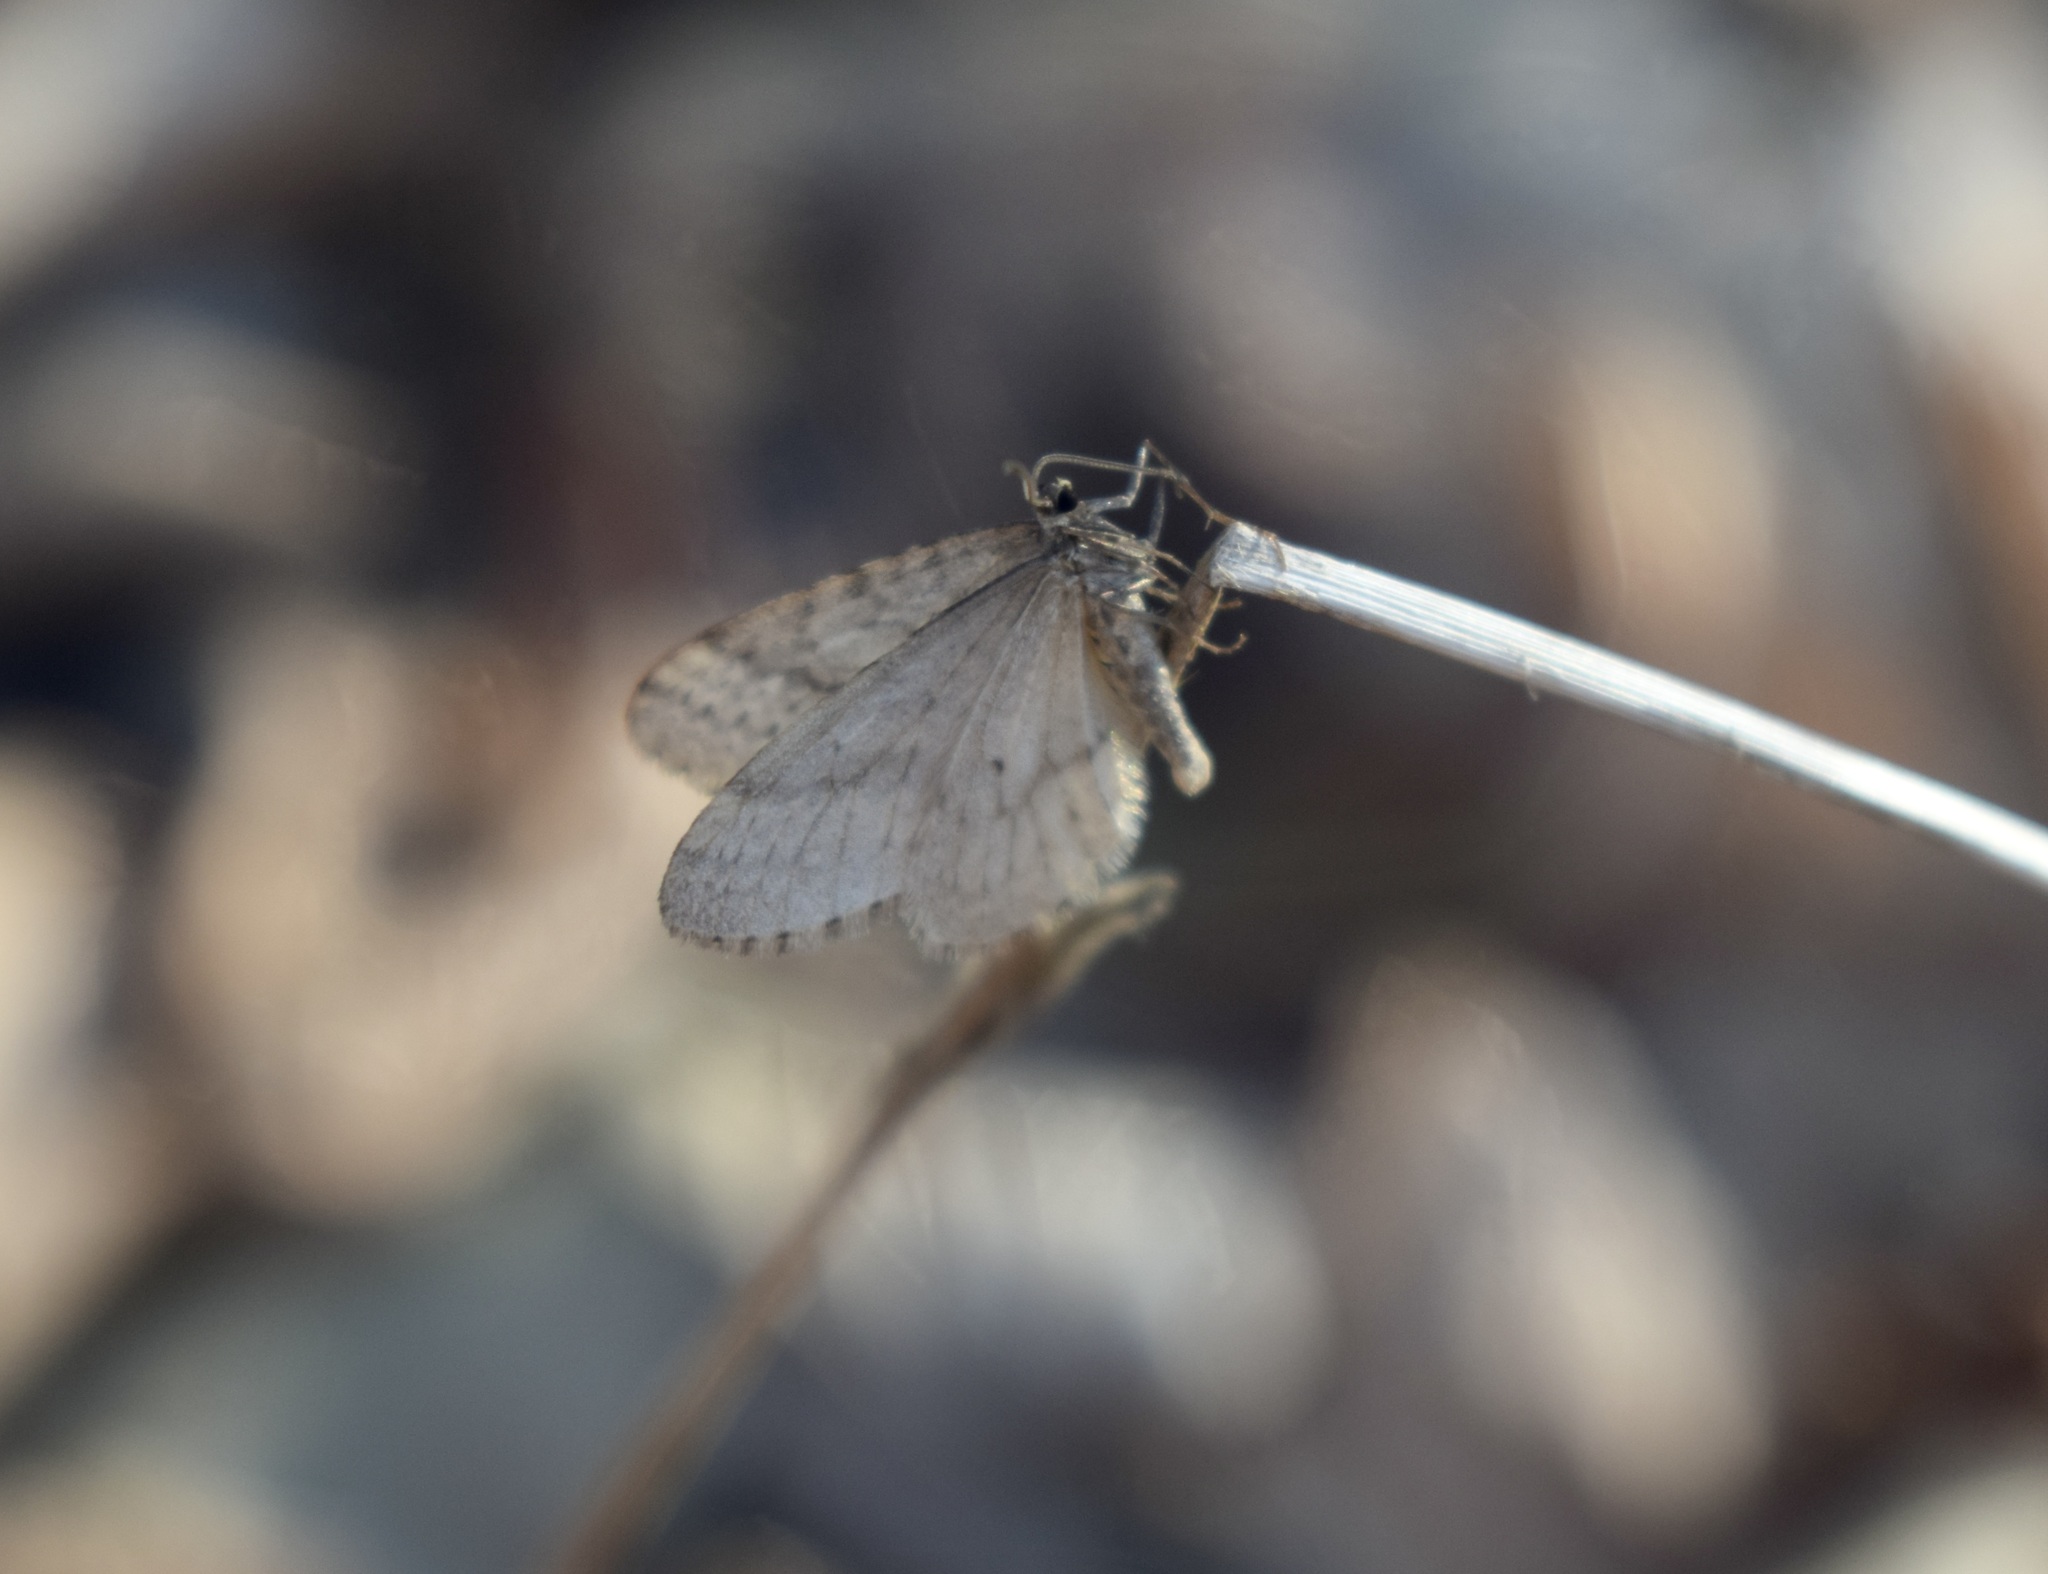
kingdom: Animalia
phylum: Arthropoda
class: Insecta
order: Lepidoptera
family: Geometridae
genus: Operophtera
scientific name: Operophtera bruceata
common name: Bruce spanworm
